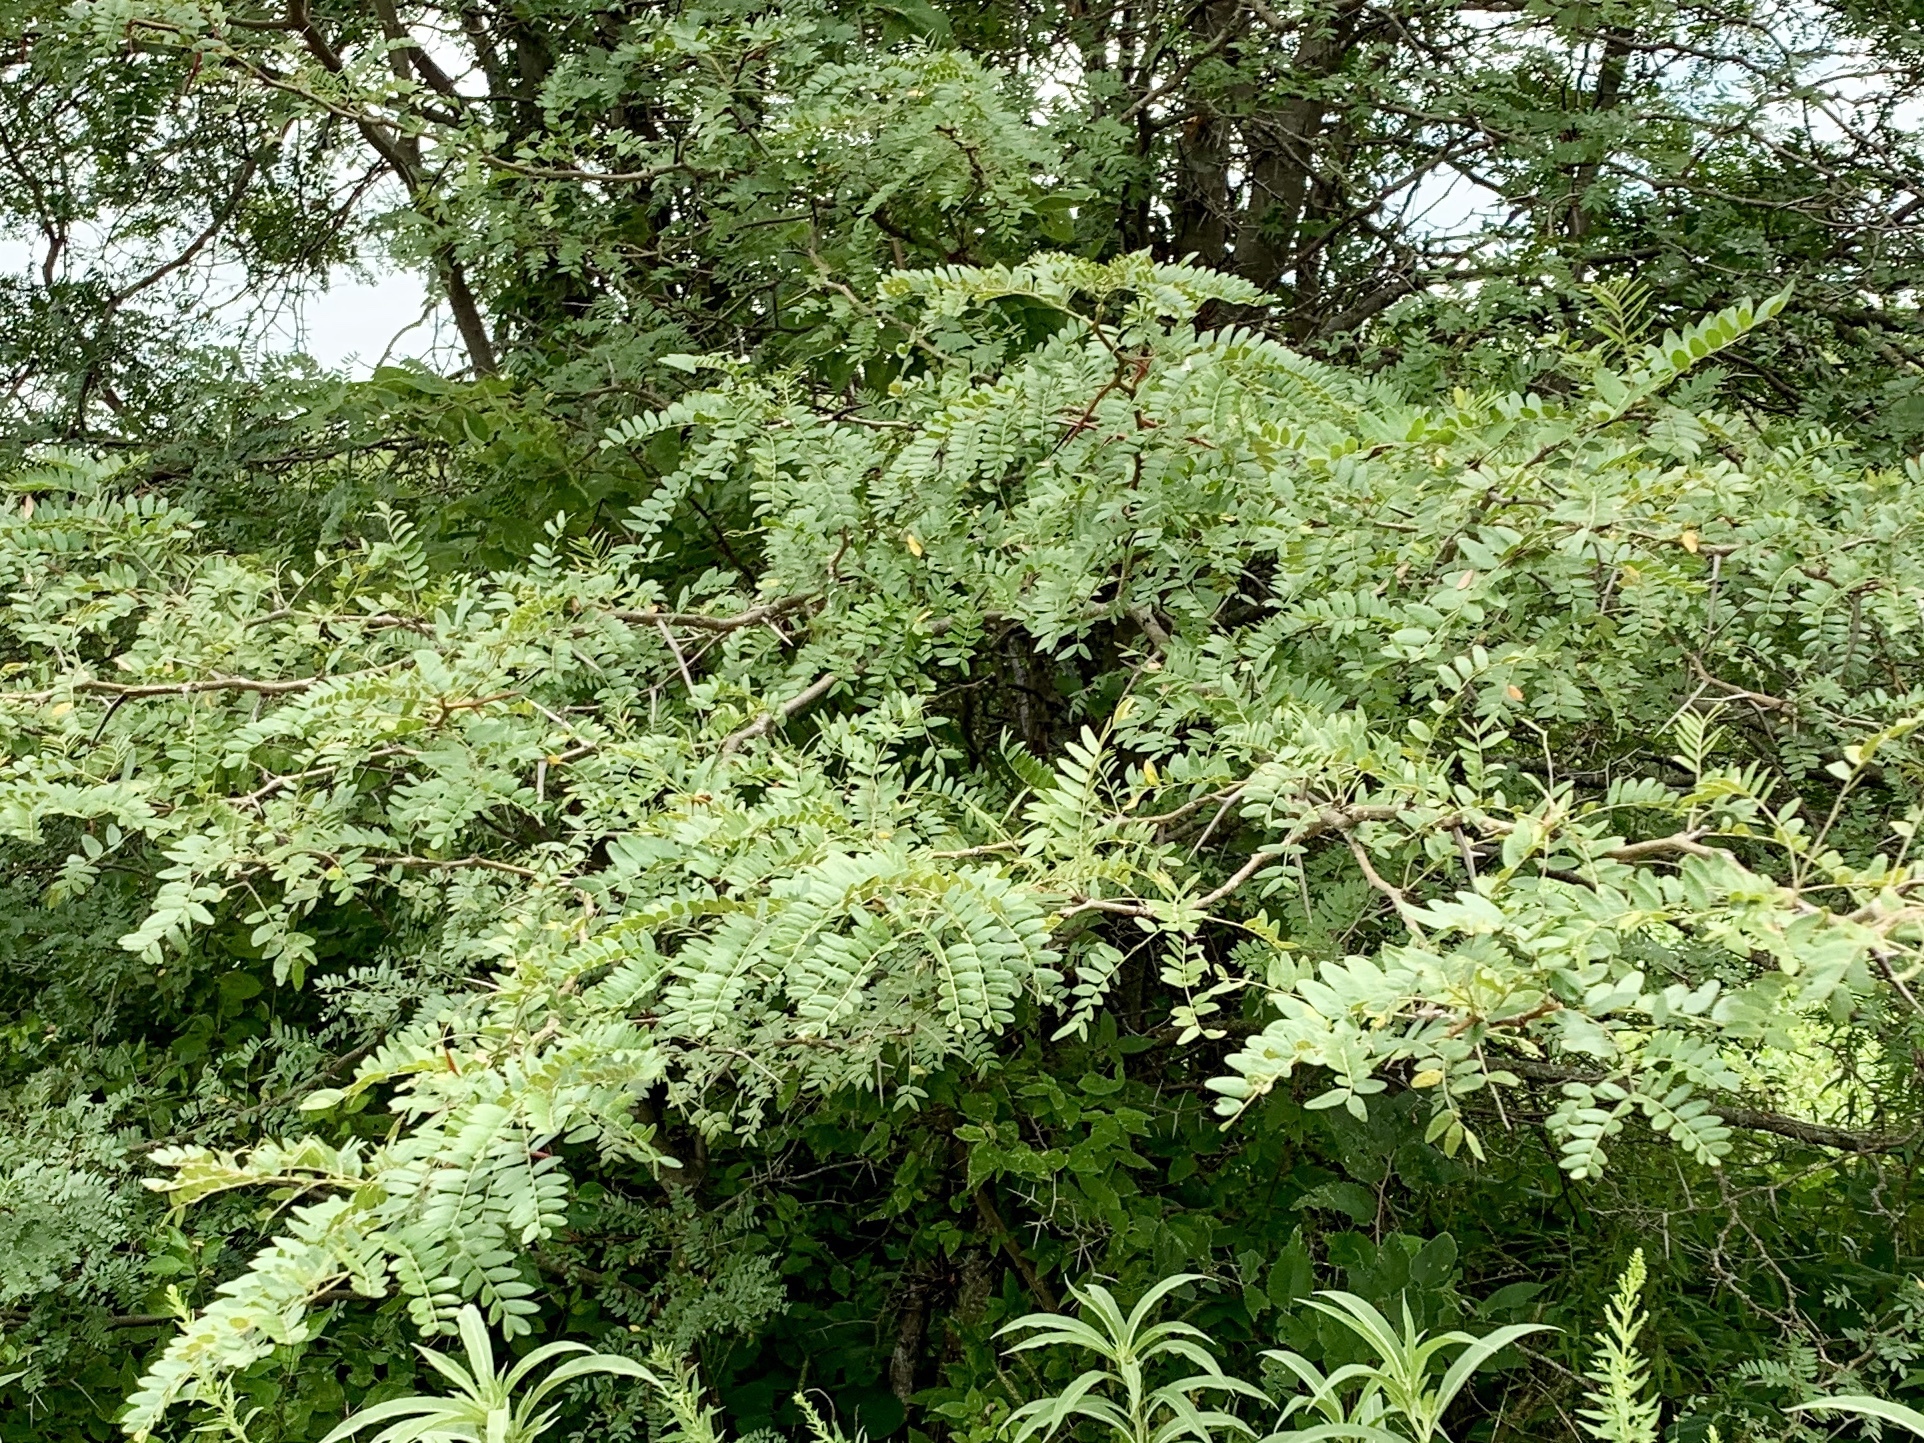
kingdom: Plantae
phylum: Tracheophyta
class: Magnoliopsida
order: Fabales
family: Fabaceae
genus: Gleditsia
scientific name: Gleditsia triacanthos
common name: Common honeylocust
